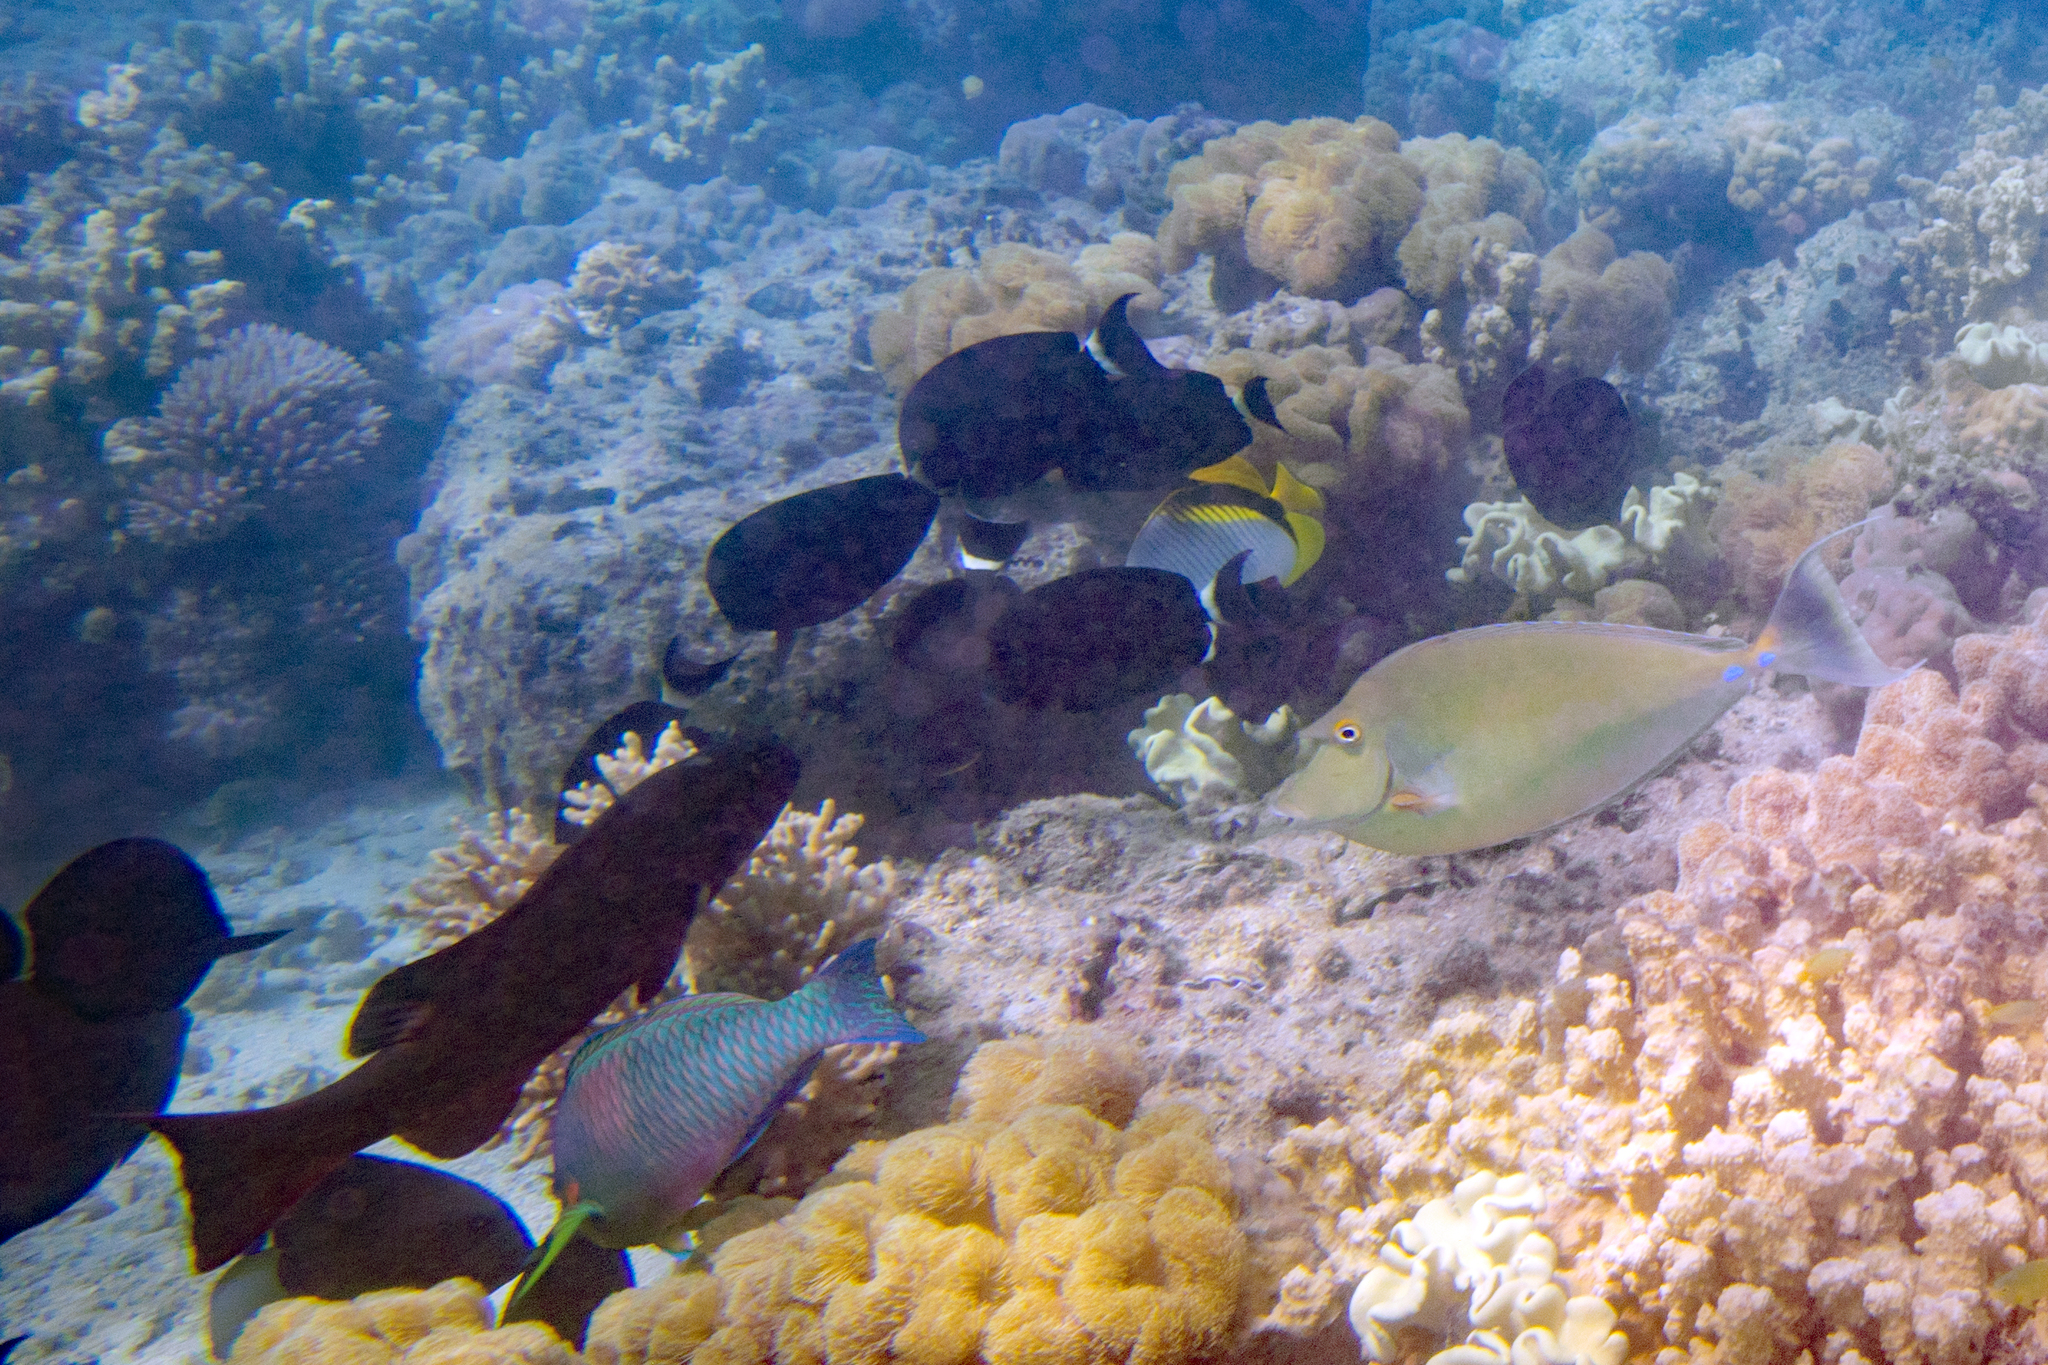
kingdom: Animalia
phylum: Chordata
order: Perciformes
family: Acanthuridae
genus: Naso
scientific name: Naso unicornis
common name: Bluespine unicornfish
